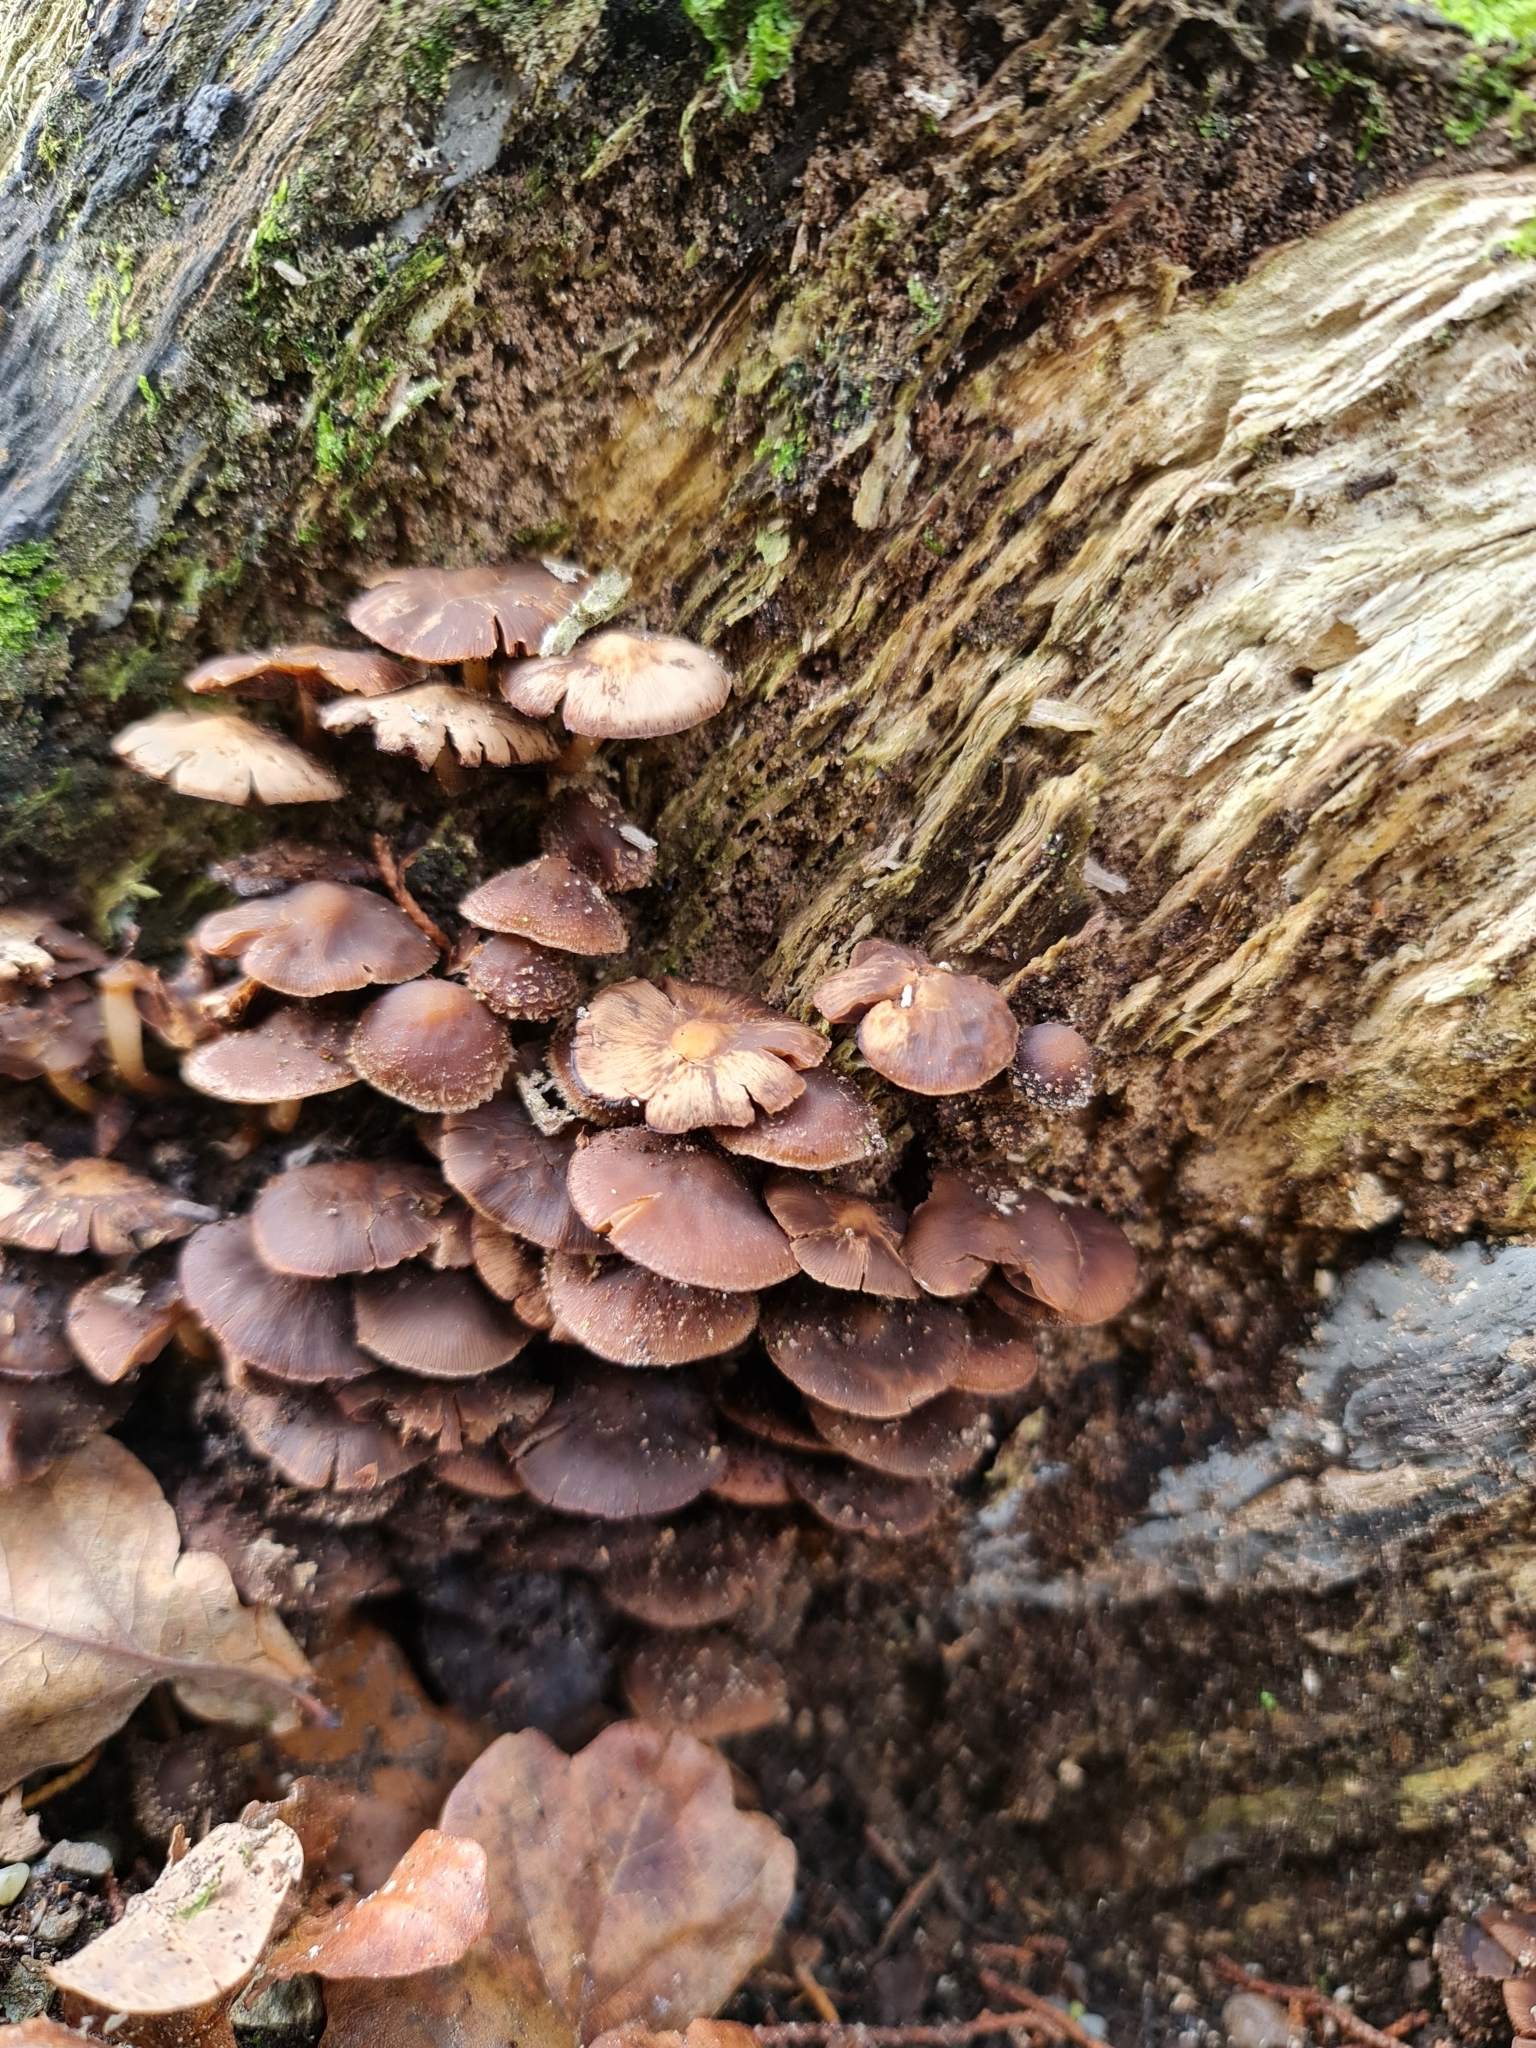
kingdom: Fungi
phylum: Basidiomycota
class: Agaricomycetes
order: Agaricales
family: Strophariaceae
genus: Hypholoma
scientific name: Hypholoma brunneum
